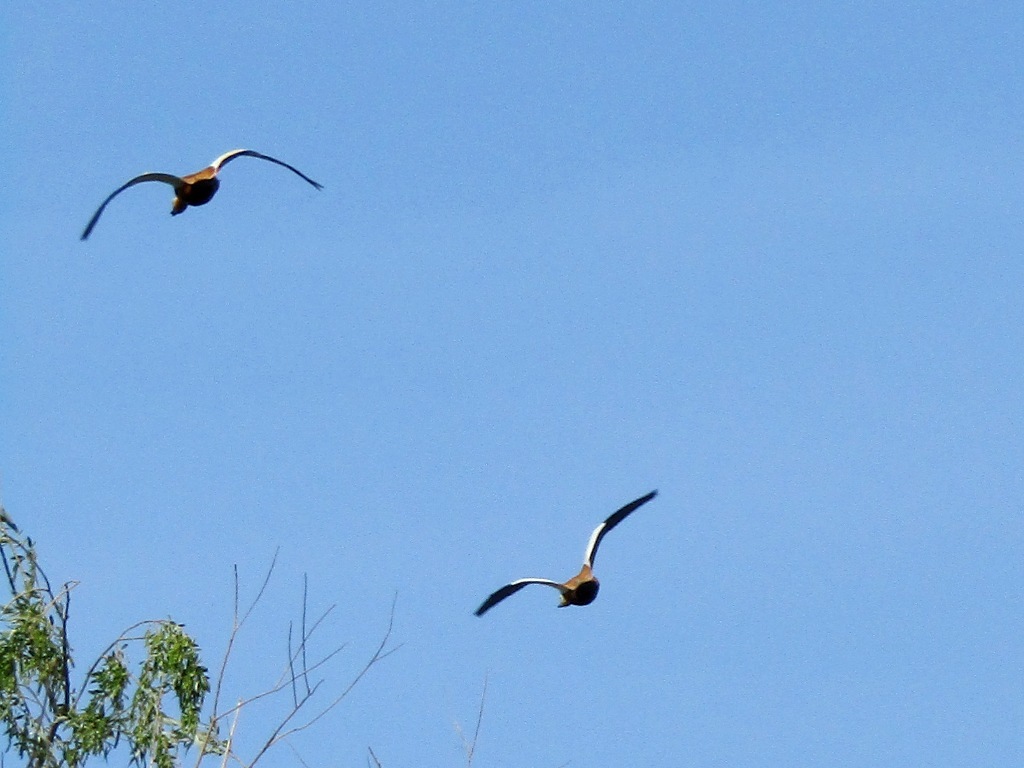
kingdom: Animalia
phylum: Chordata
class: Aves
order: Anseriformes
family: Anatidae
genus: Tadorna
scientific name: Tadorna ferruginea
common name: Ruddy shelduck
